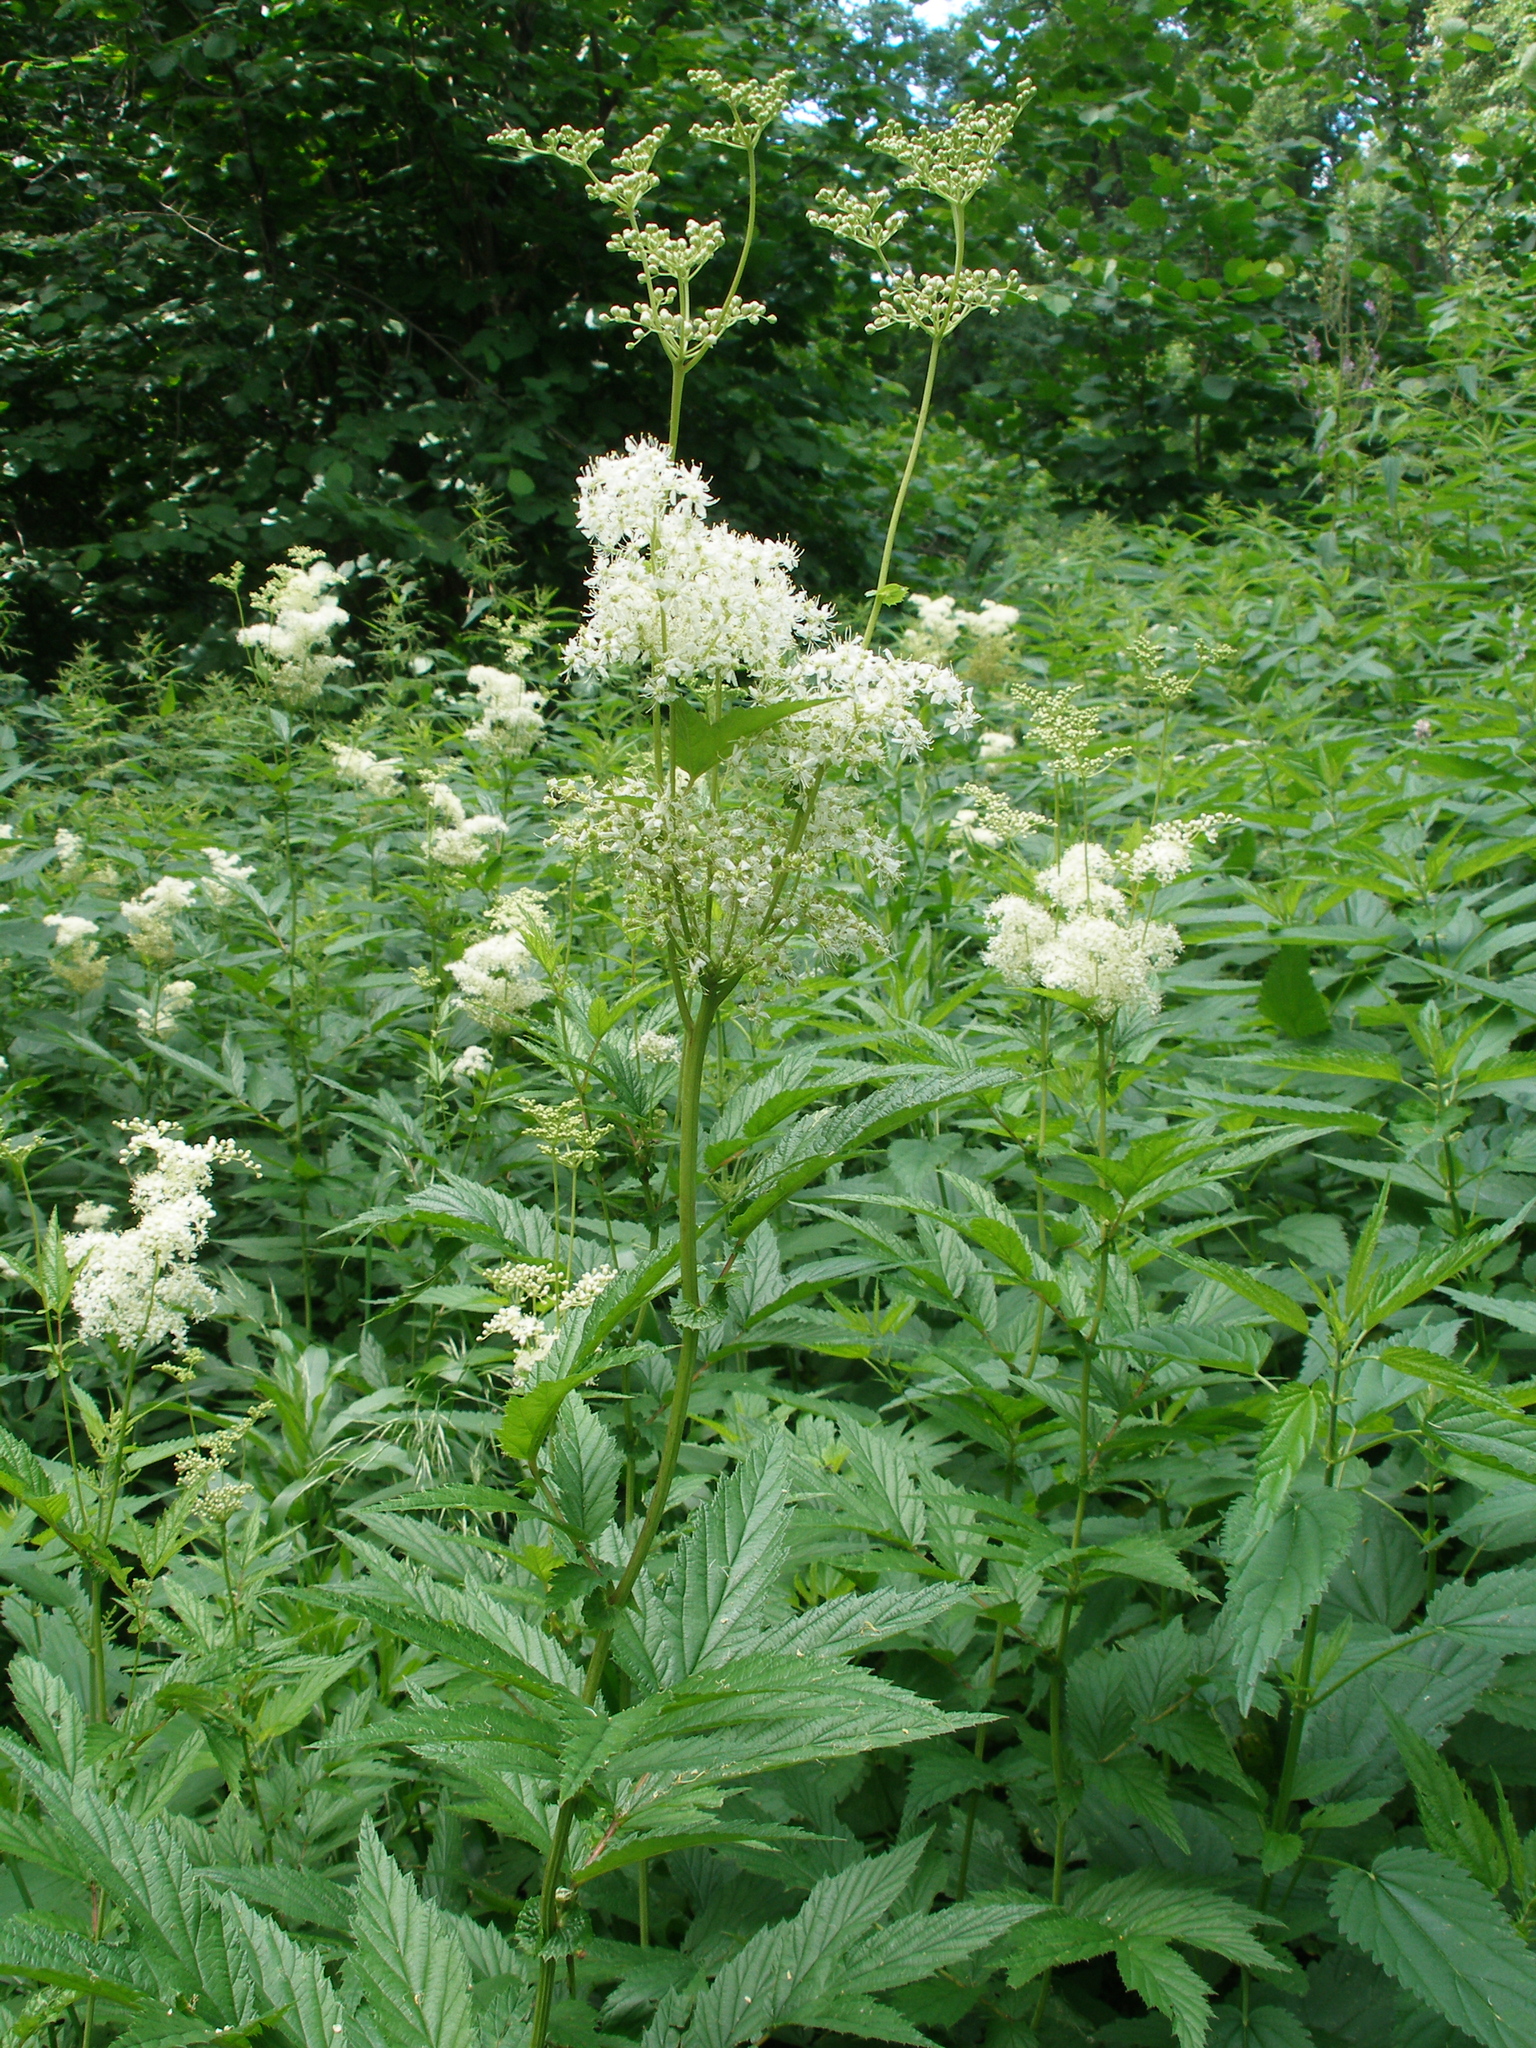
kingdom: Plantae
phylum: Tracheophyta
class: Magnoliopsida
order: Rosales
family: Rosaceae
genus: Filipendula
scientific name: Filipendula ulmaria
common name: Meadowsweet
